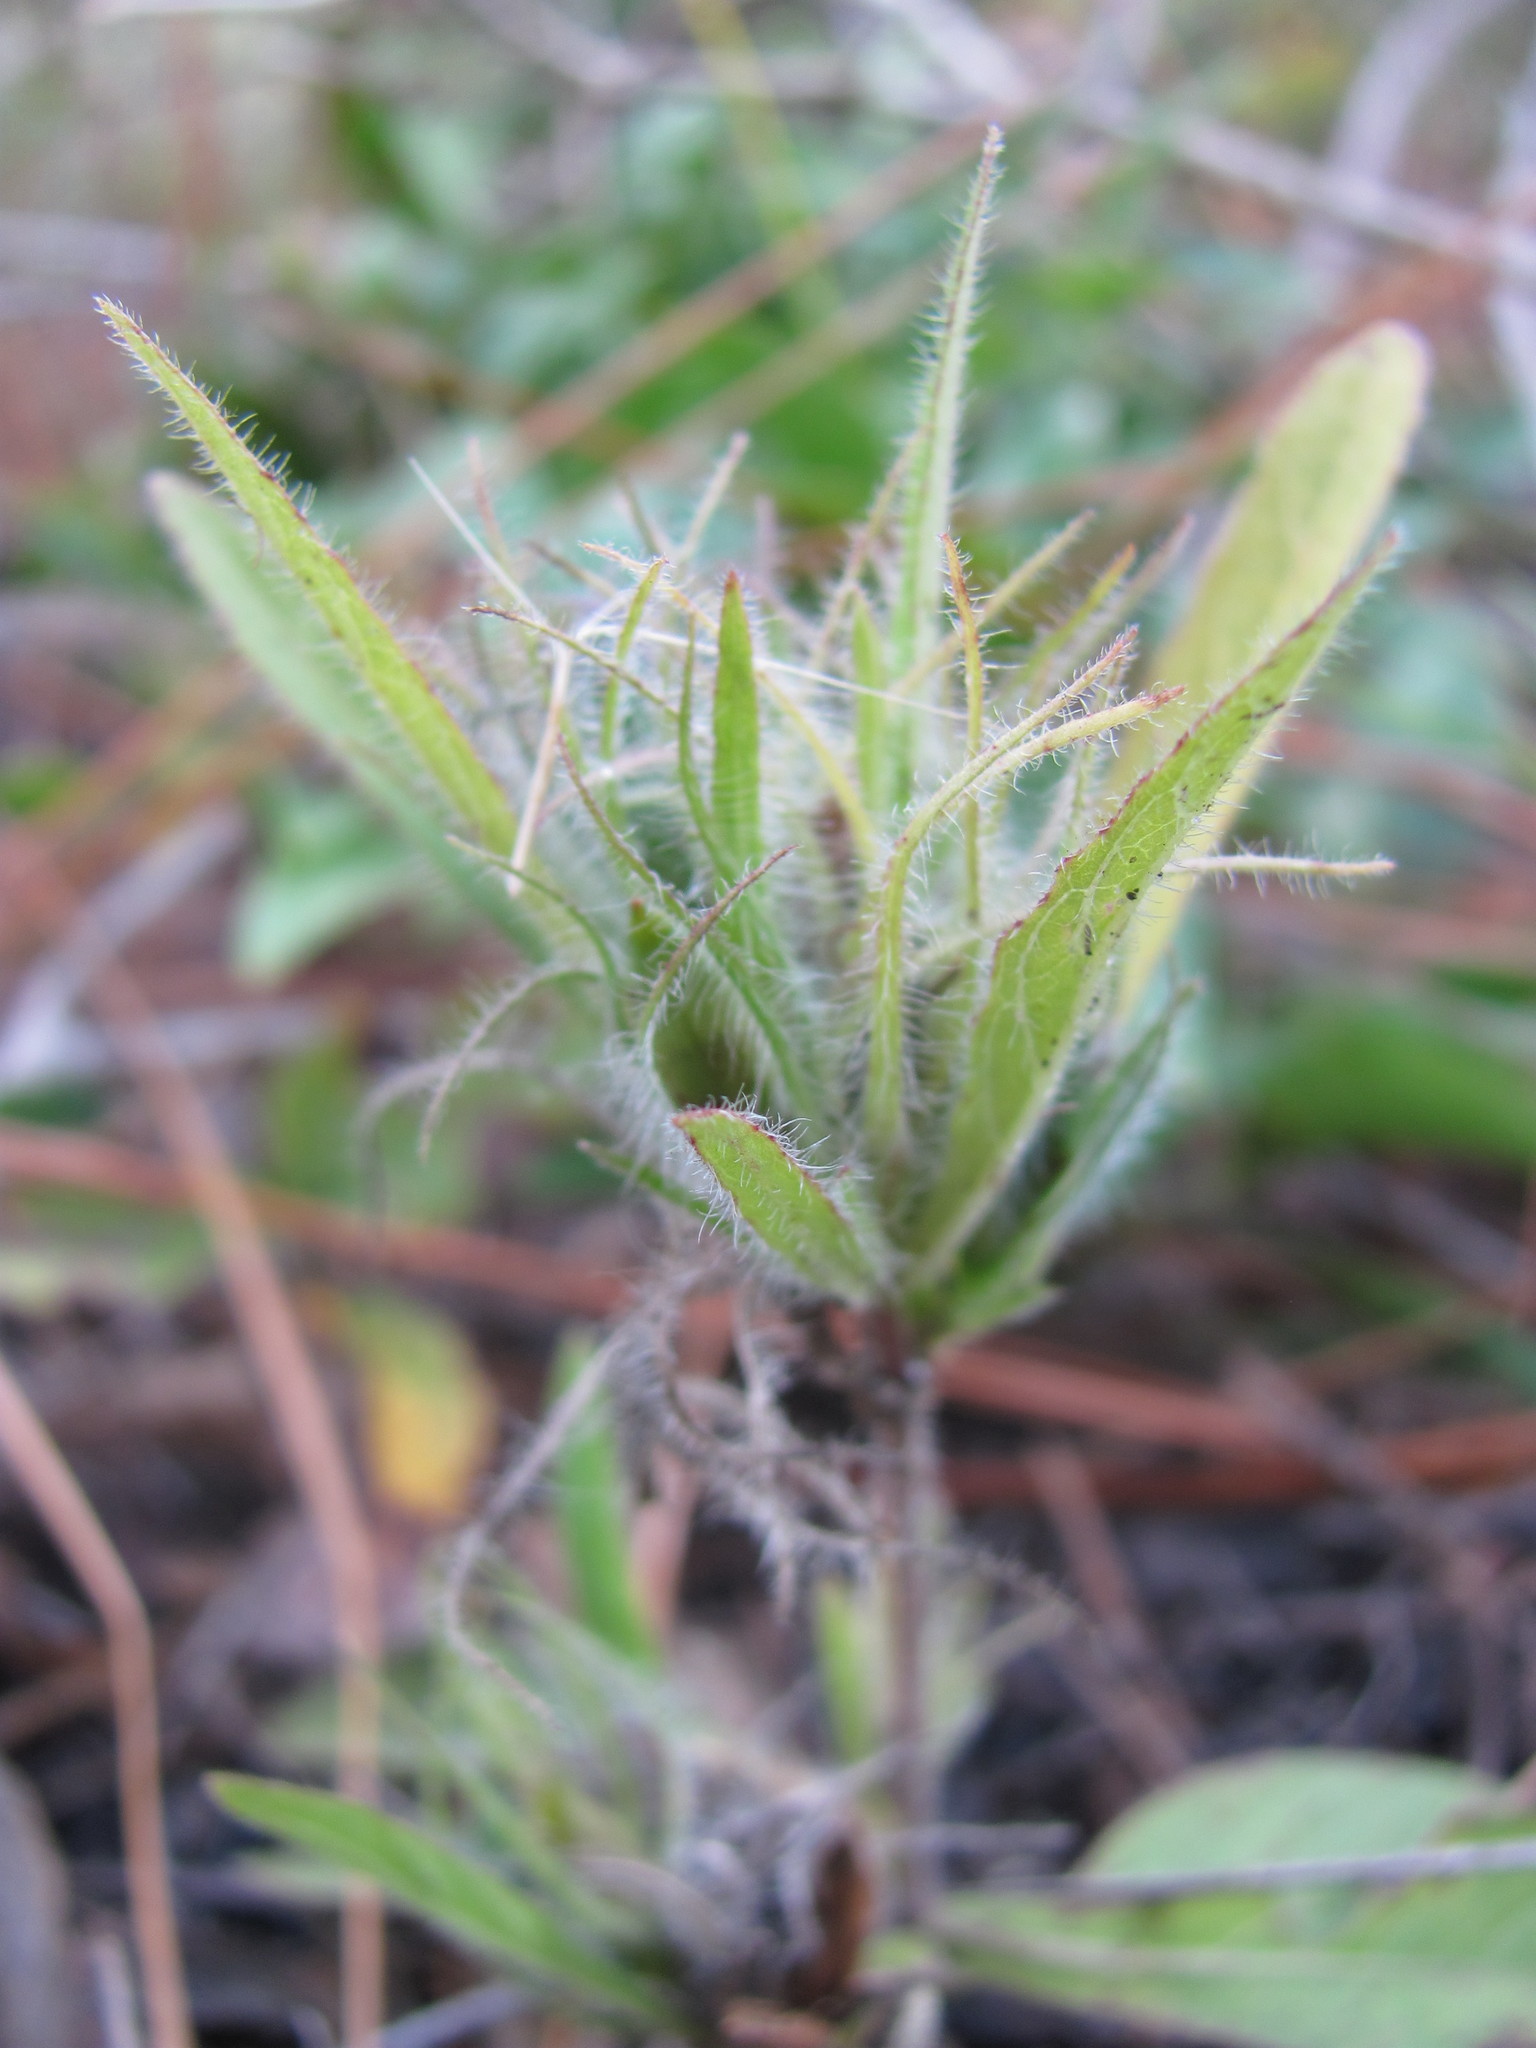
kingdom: Plantae
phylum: Tracheophyta
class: Magnoliopsida
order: Lamiales
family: Acanthaceae
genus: Ruellia
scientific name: Ruellia caroliniensis
